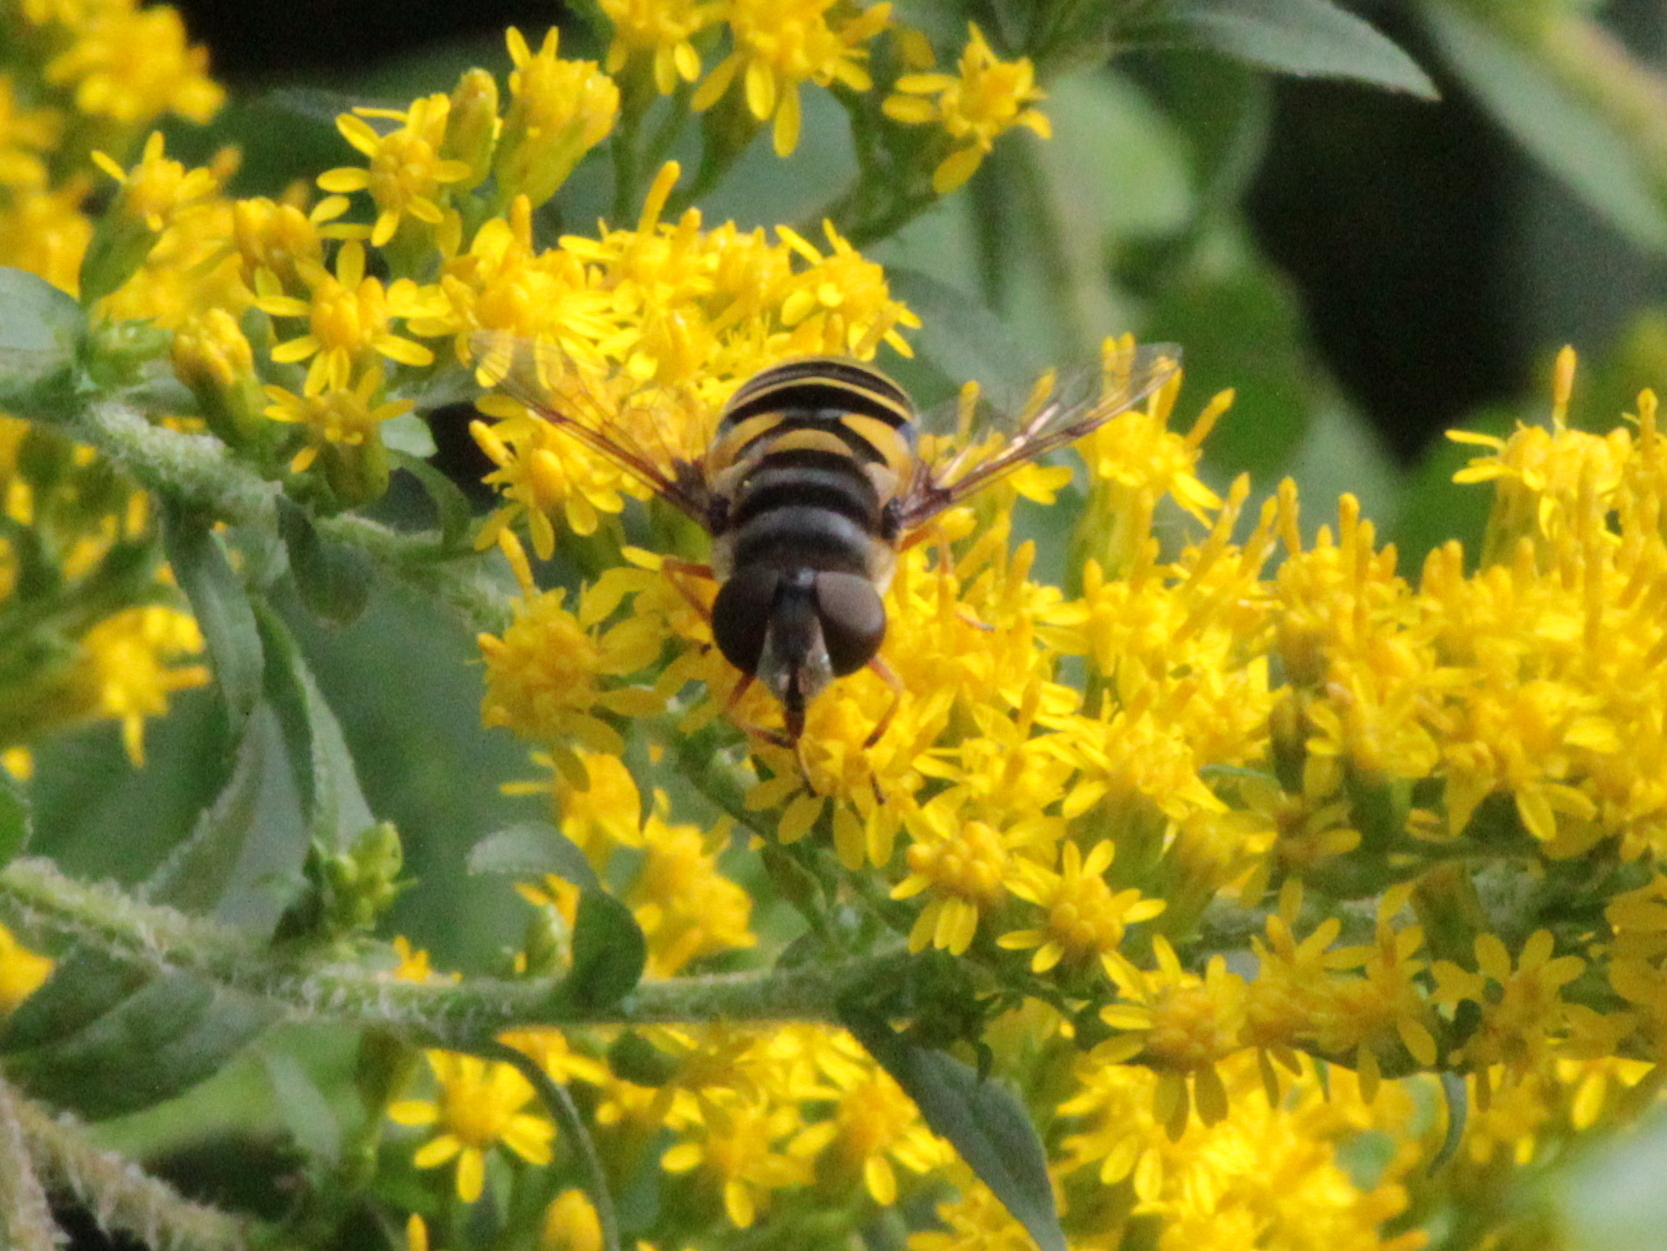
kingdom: Animalia
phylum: Arthropoda
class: Insecta
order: Diptera
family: Syrphidae
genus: Eristalis
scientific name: Eristalis transversa
